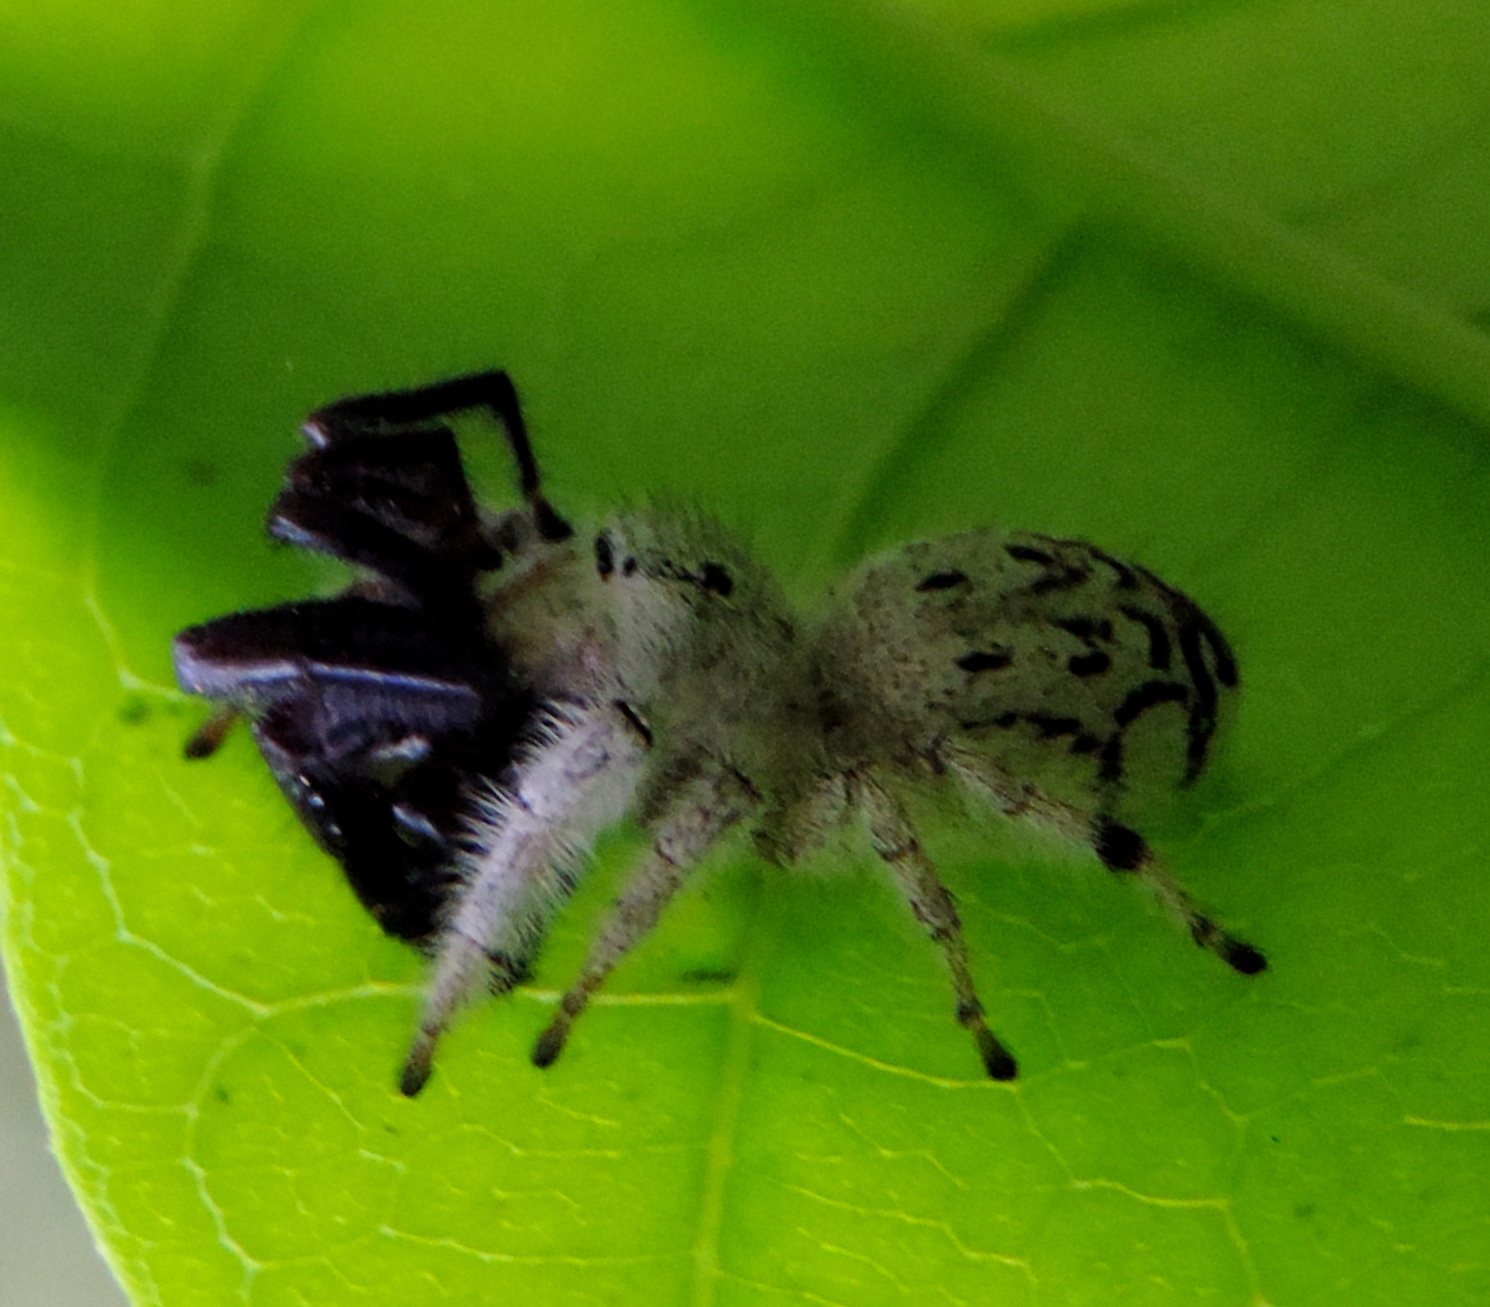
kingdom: Animalia
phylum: Arthropoda
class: Arachnida
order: Araneae
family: Salticidae
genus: Paraphidippus
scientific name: Paraphidippus fartilis
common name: Jumping spiders
